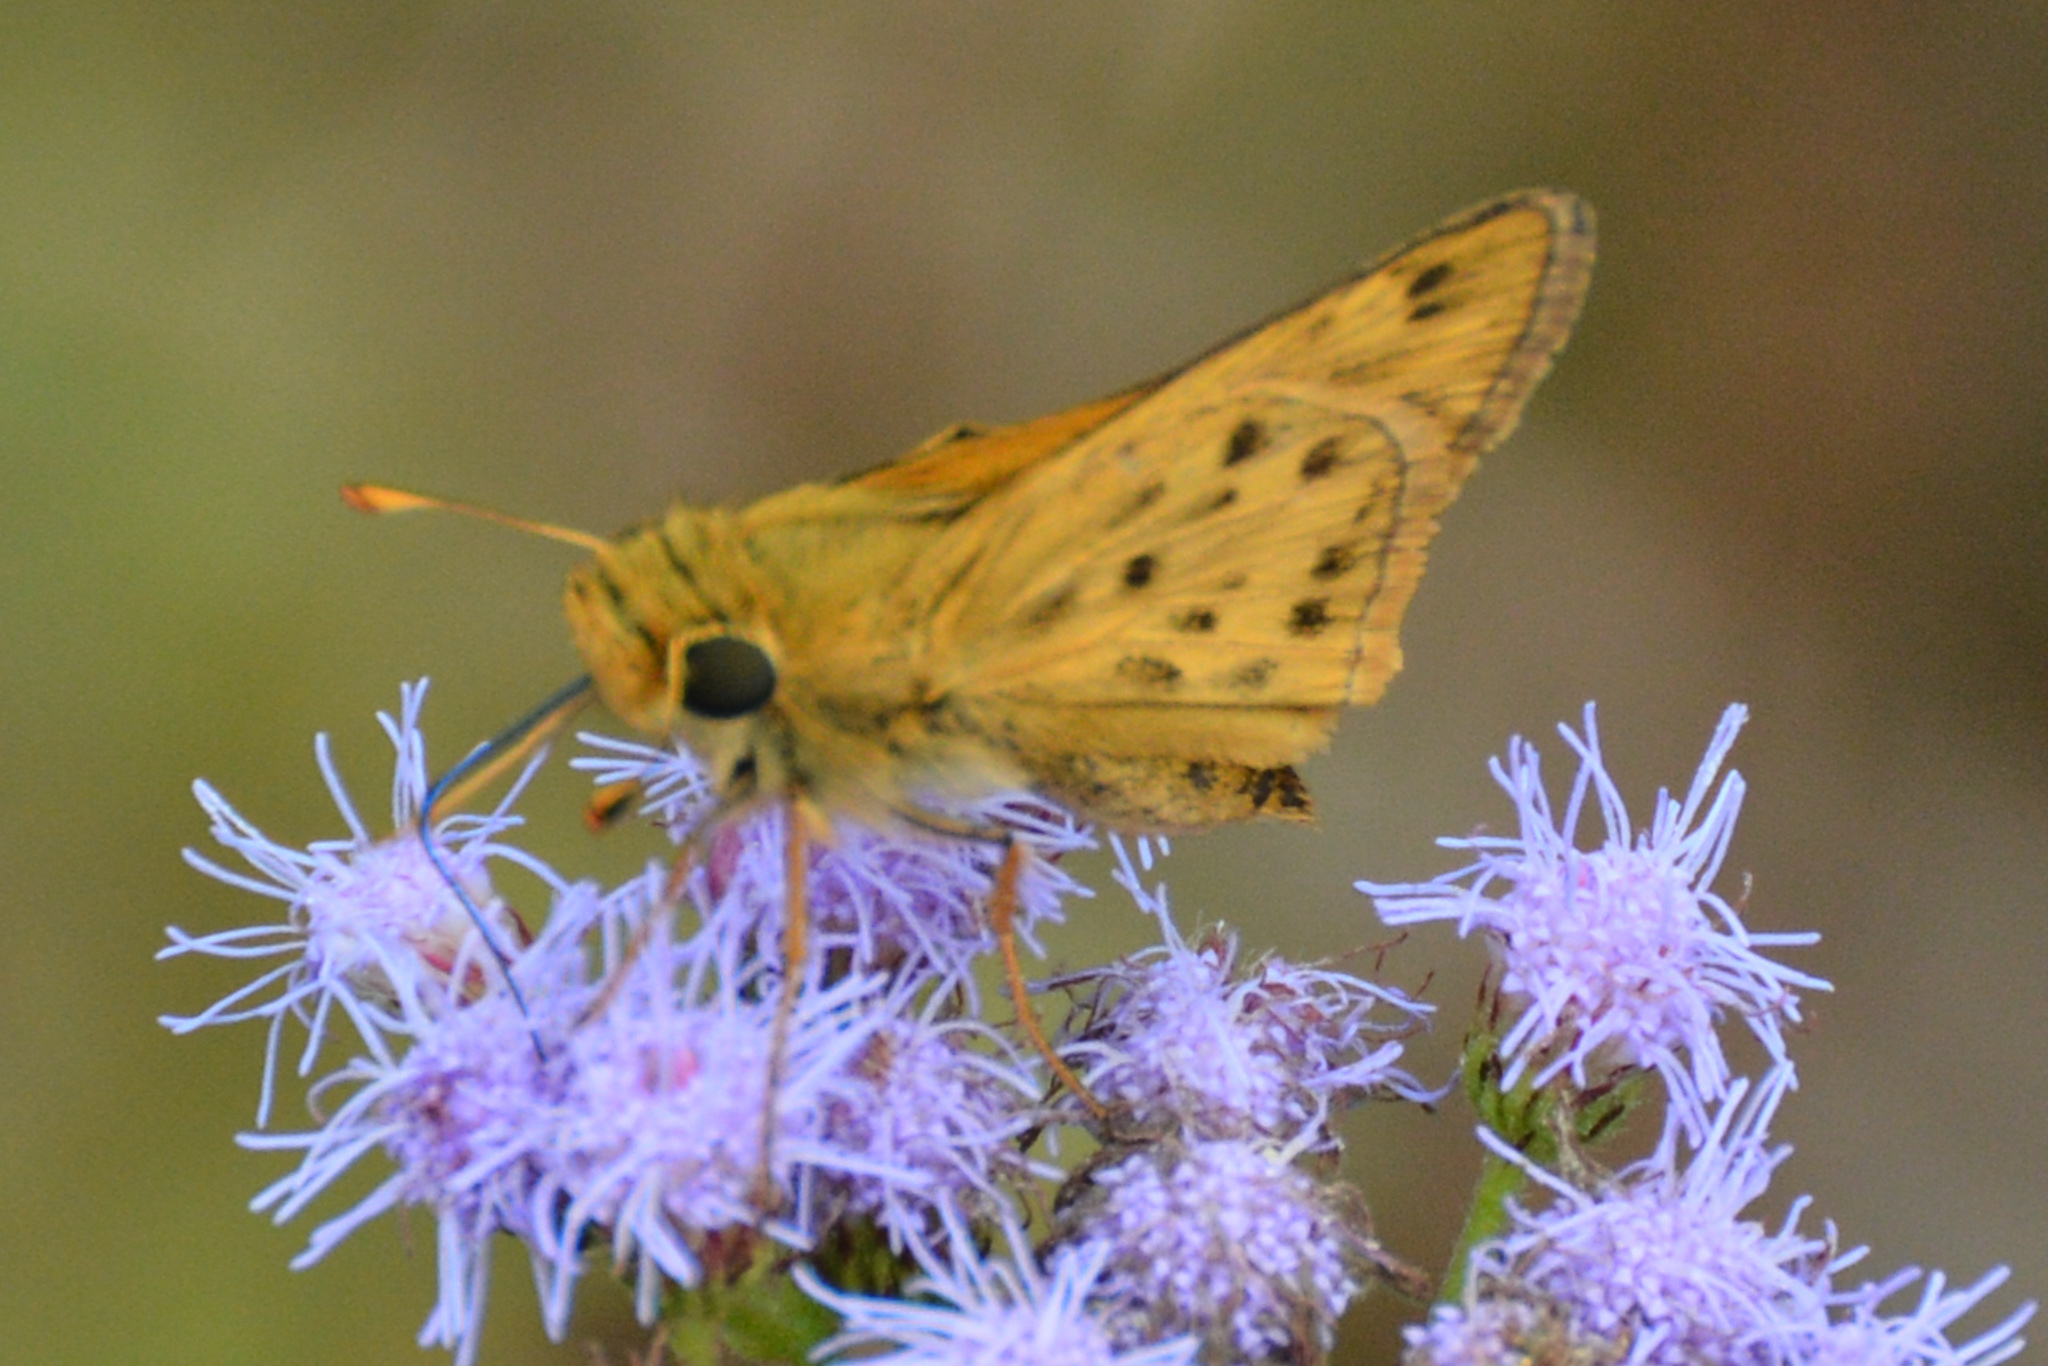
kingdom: Animalia
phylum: Arthropoda
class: Insecta
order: Lepidoptera
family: Hesperiidae
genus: Hylephila
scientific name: Hylephila phyleus
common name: Fiery skipper
